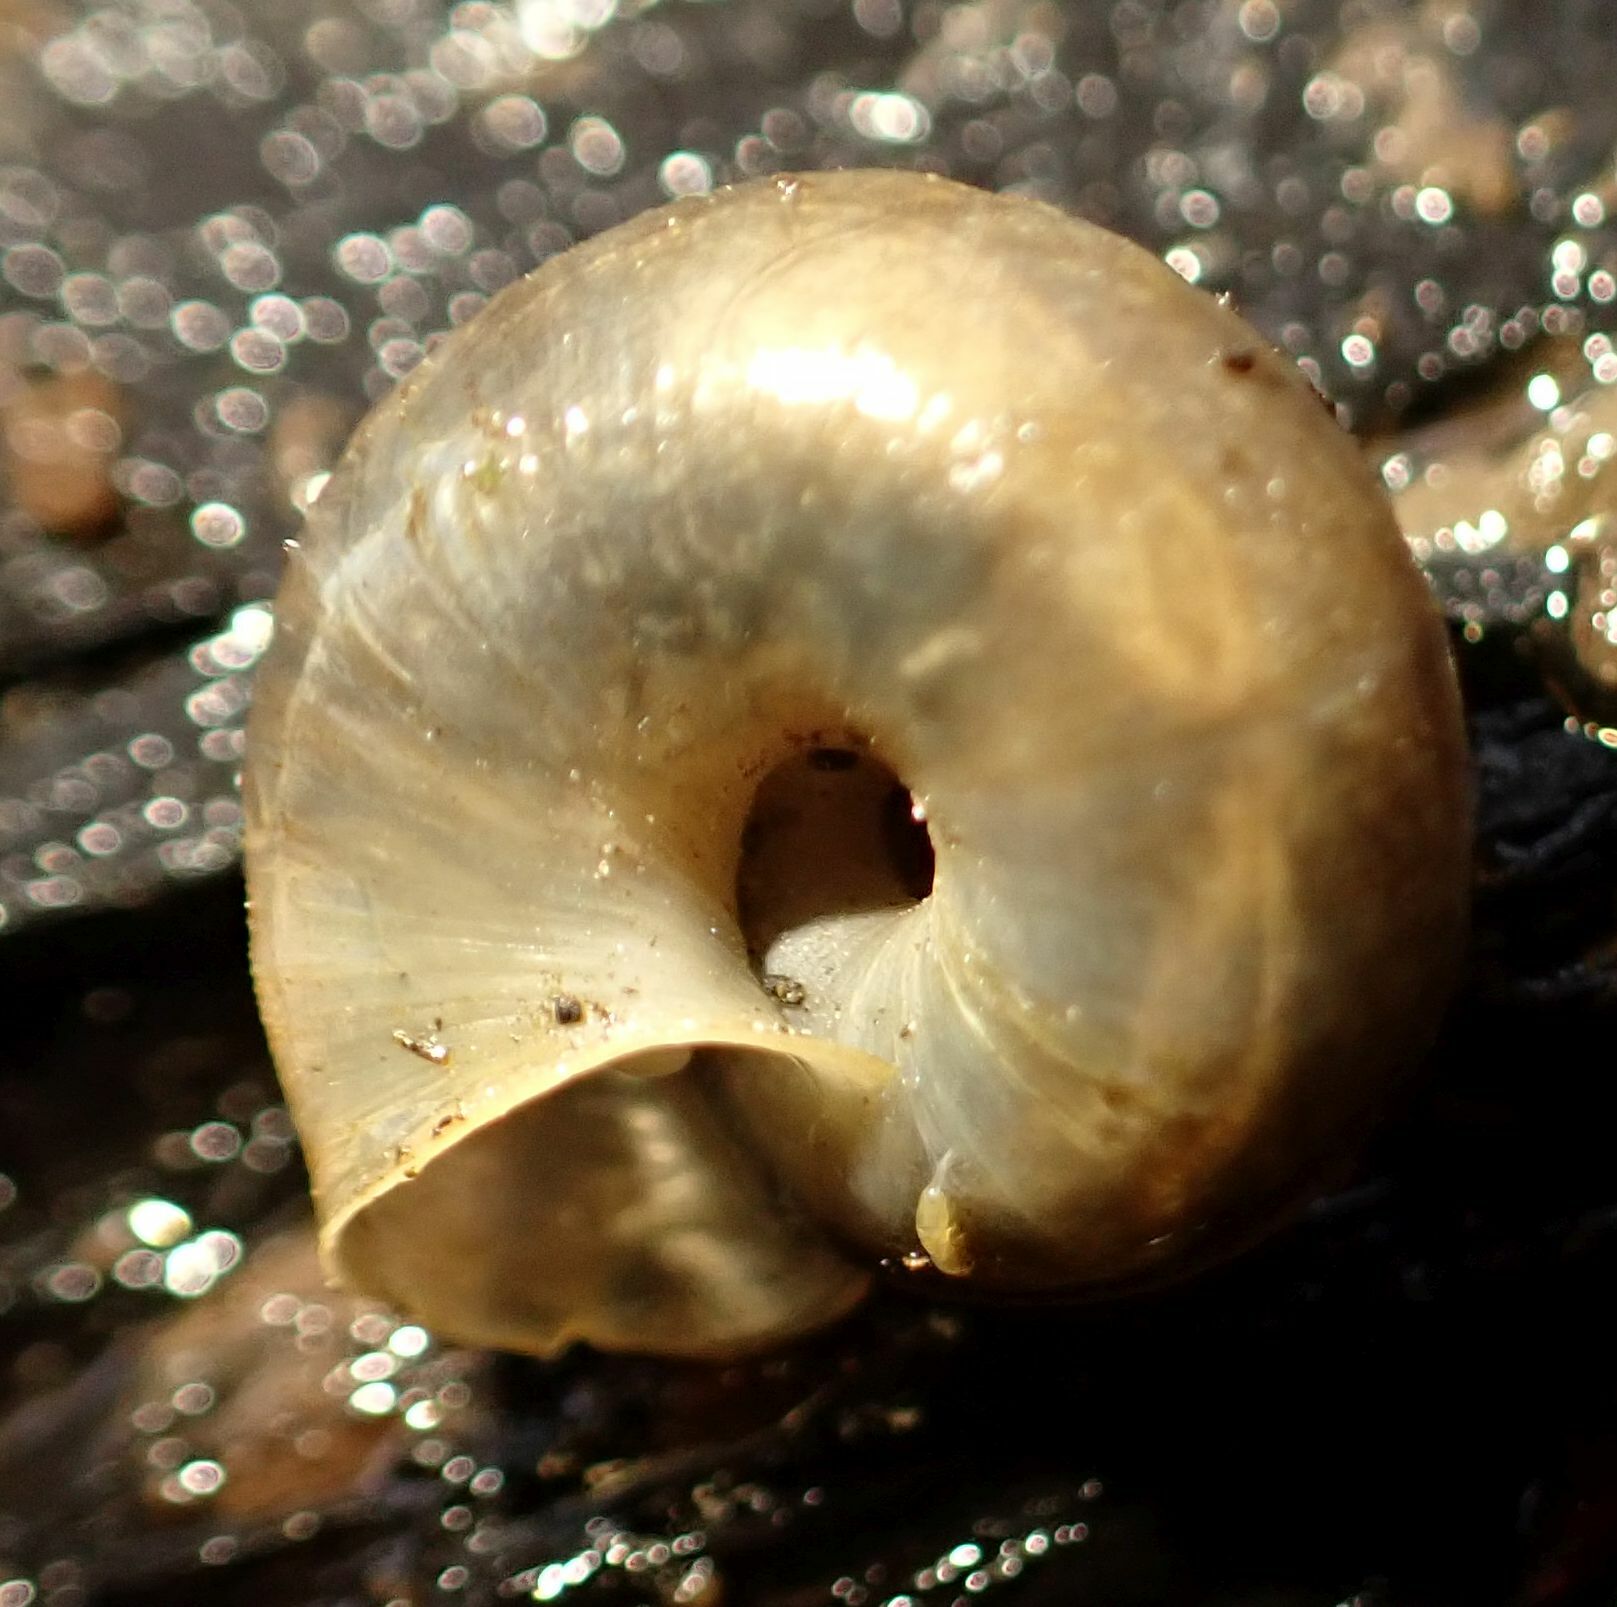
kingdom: Animalia
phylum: Mollusca
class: Gastropoda
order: Stylommatophora
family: Hygromiidae
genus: Trochulus
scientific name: Trochulus striolatus
